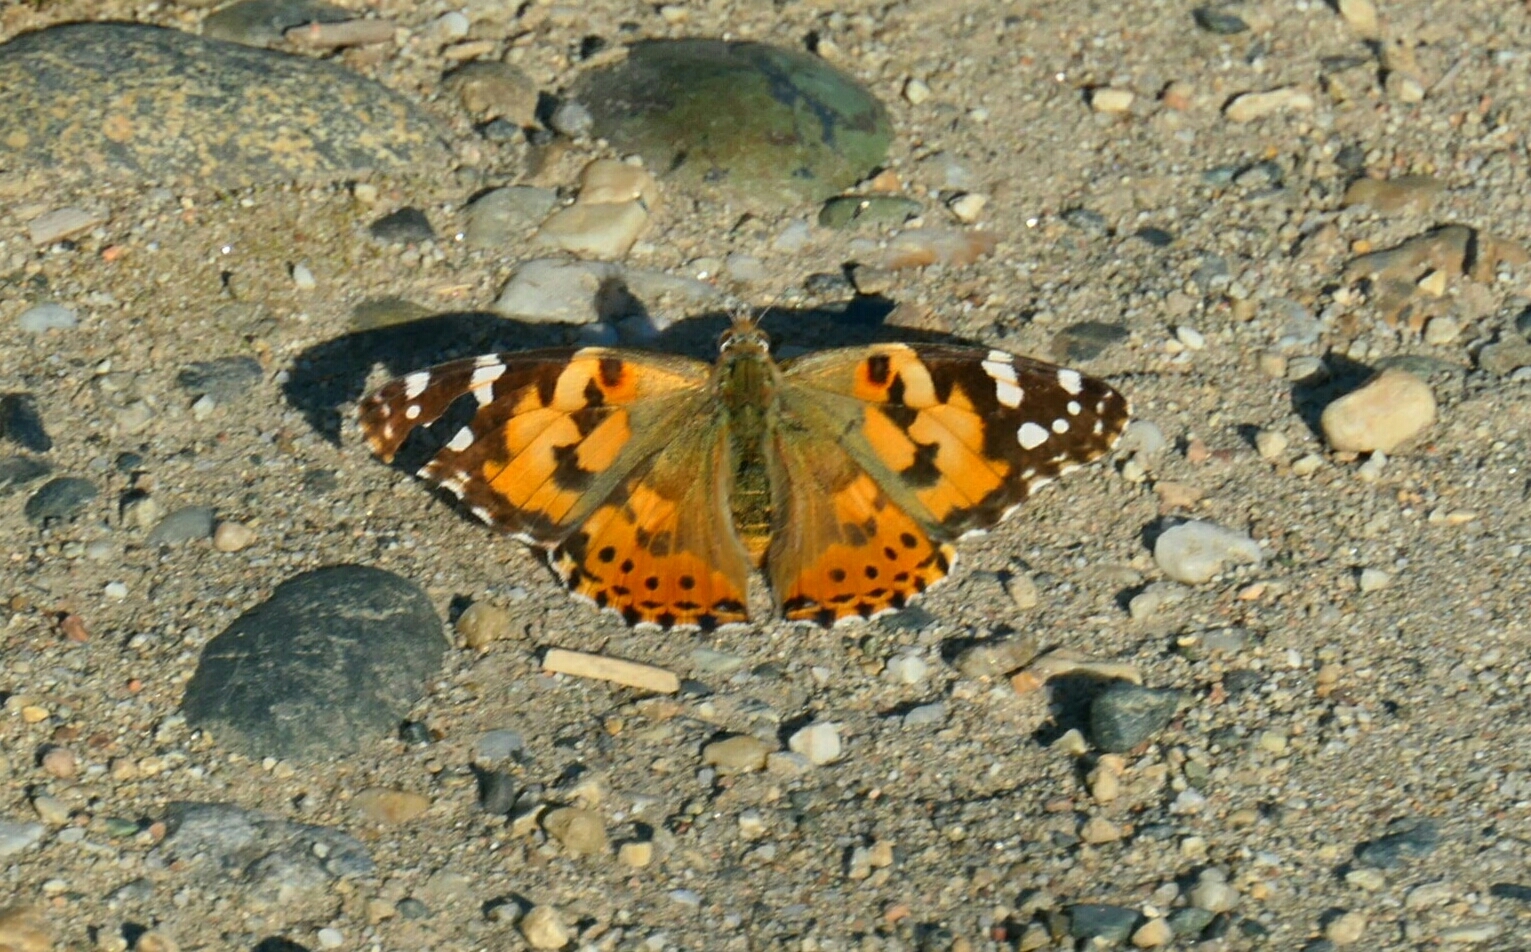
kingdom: Animalia
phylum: Arthropoda
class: Insecta
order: Lepidoptera
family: Nymphalidae
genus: Vanessa
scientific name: Vanessa cardui
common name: Painted lady
